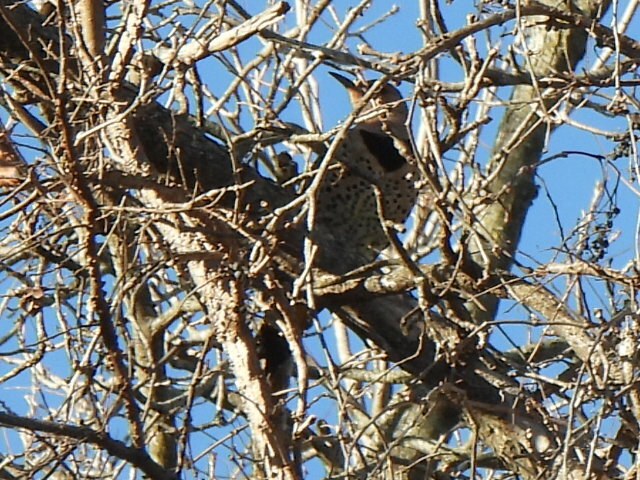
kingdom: Animalia
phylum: Chordata
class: Aves
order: Piciformes
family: Picidae
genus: Colaptes
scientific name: Colaptes auratus
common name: Northern flicker
